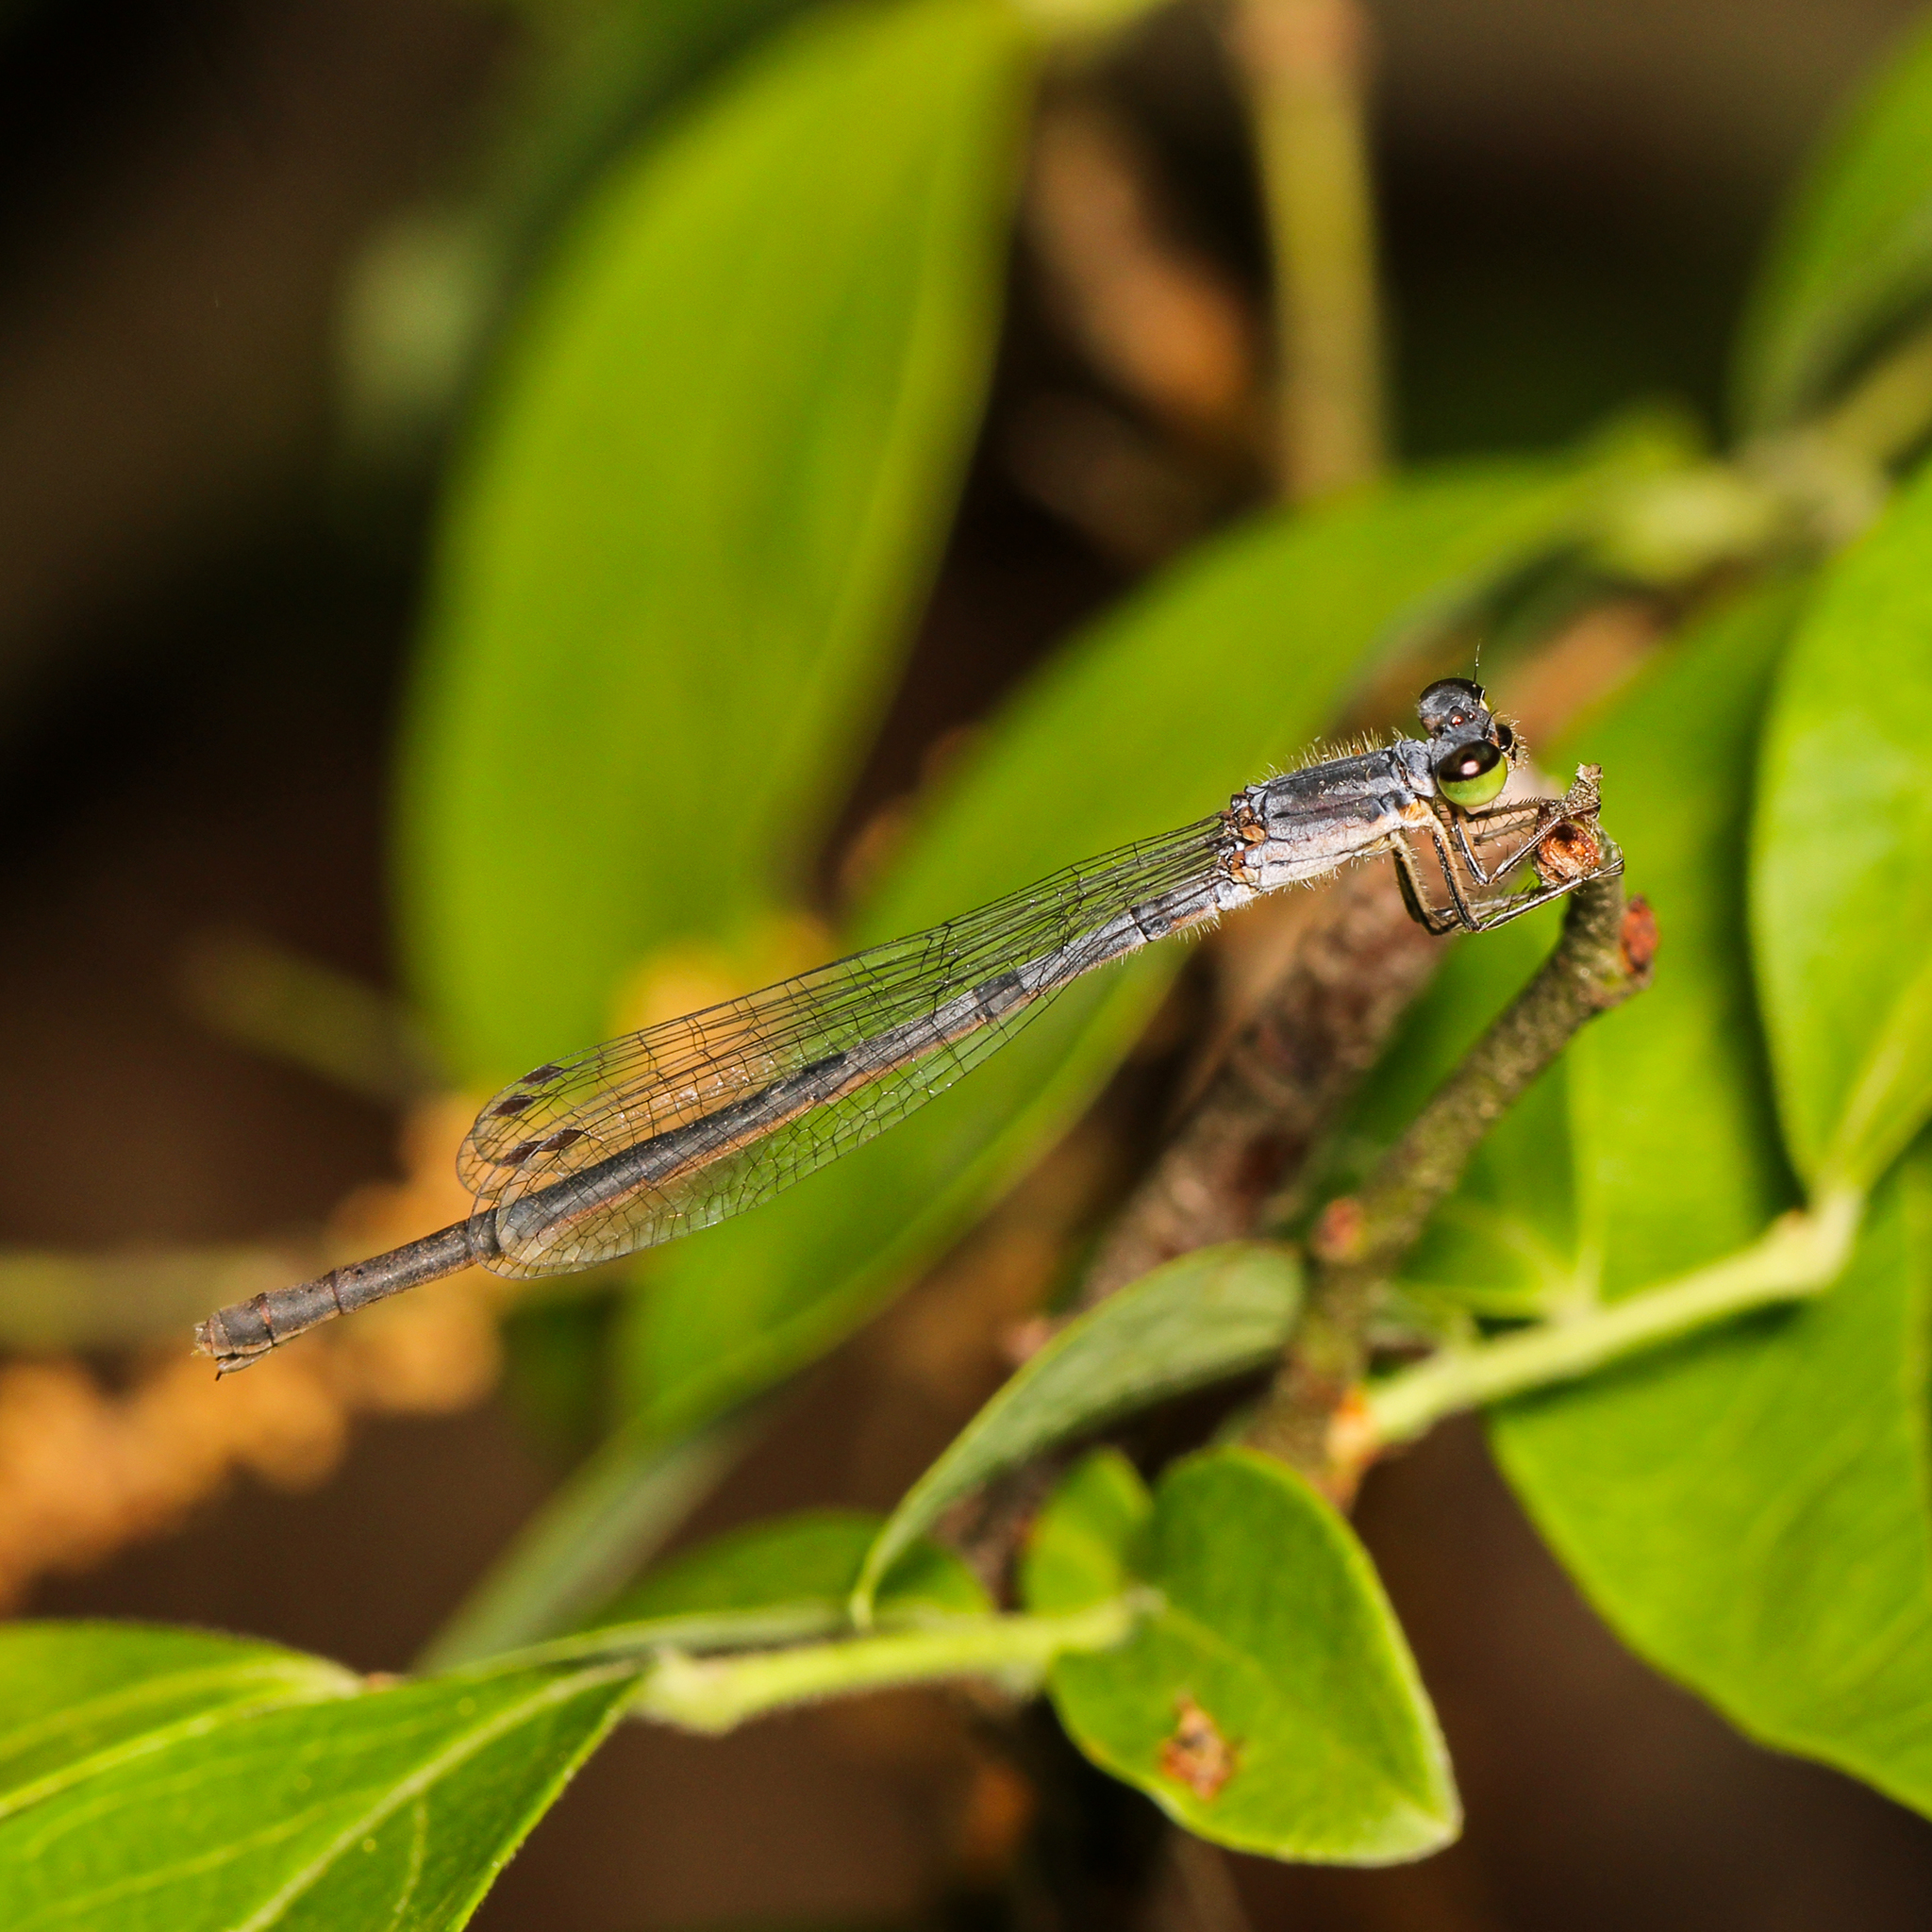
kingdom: Animalia
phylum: Arthropoda
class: Insecta
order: Odonata
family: Coenagrionidae
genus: Ischnura
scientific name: Ischnura posita
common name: Fragile forktail
